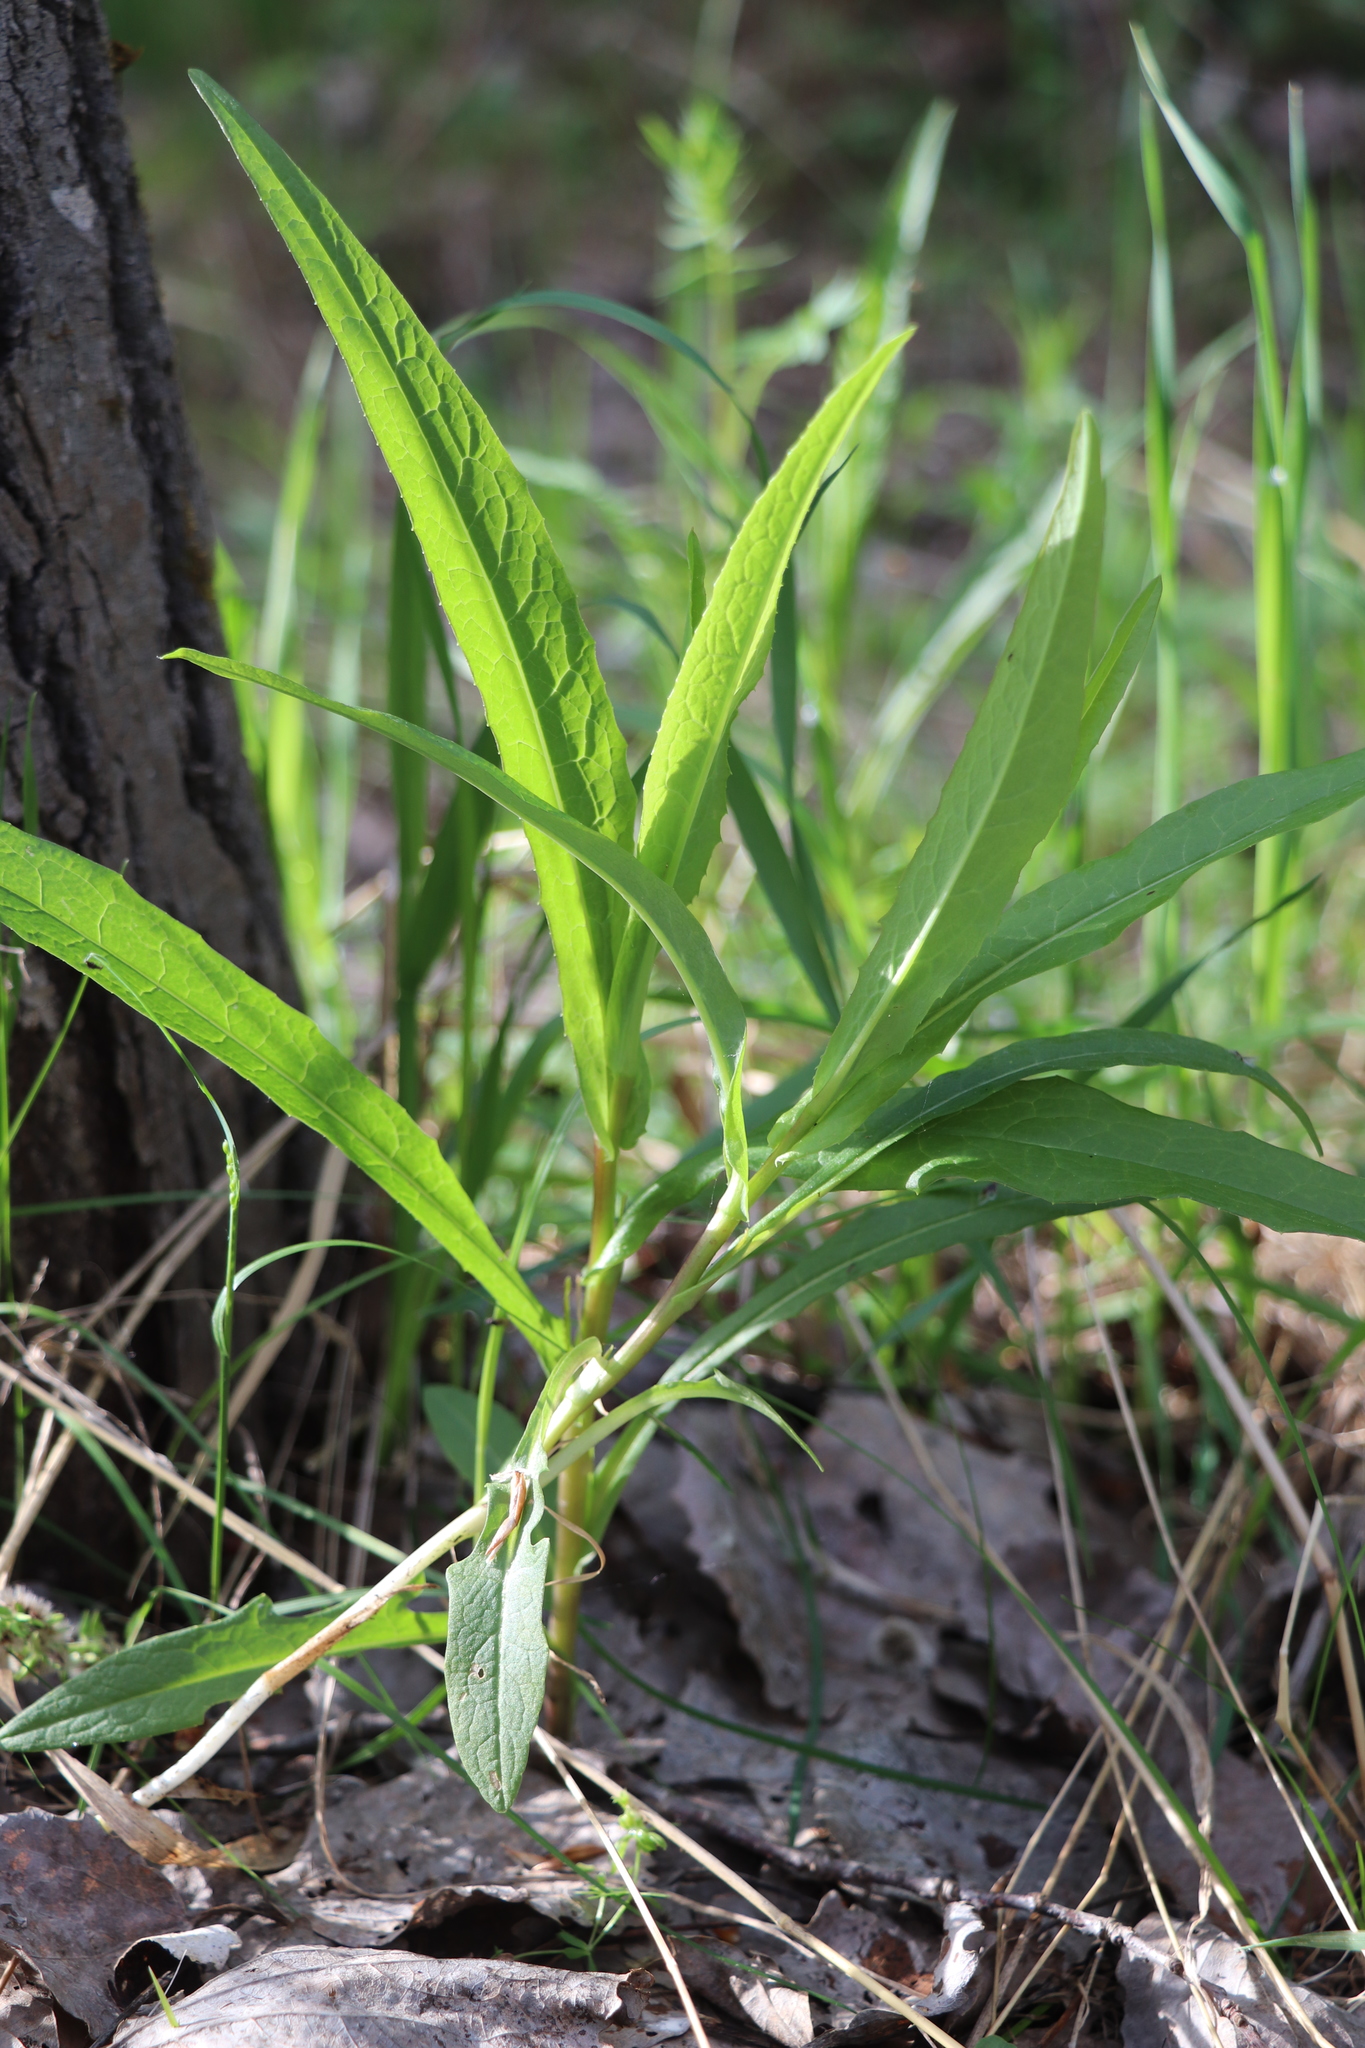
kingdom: Plantae
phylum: Tracheophyta
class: Magnoliopsida
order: Asterales
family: Asteraceae
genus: Lactuca
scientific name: Lactuca sibirica
